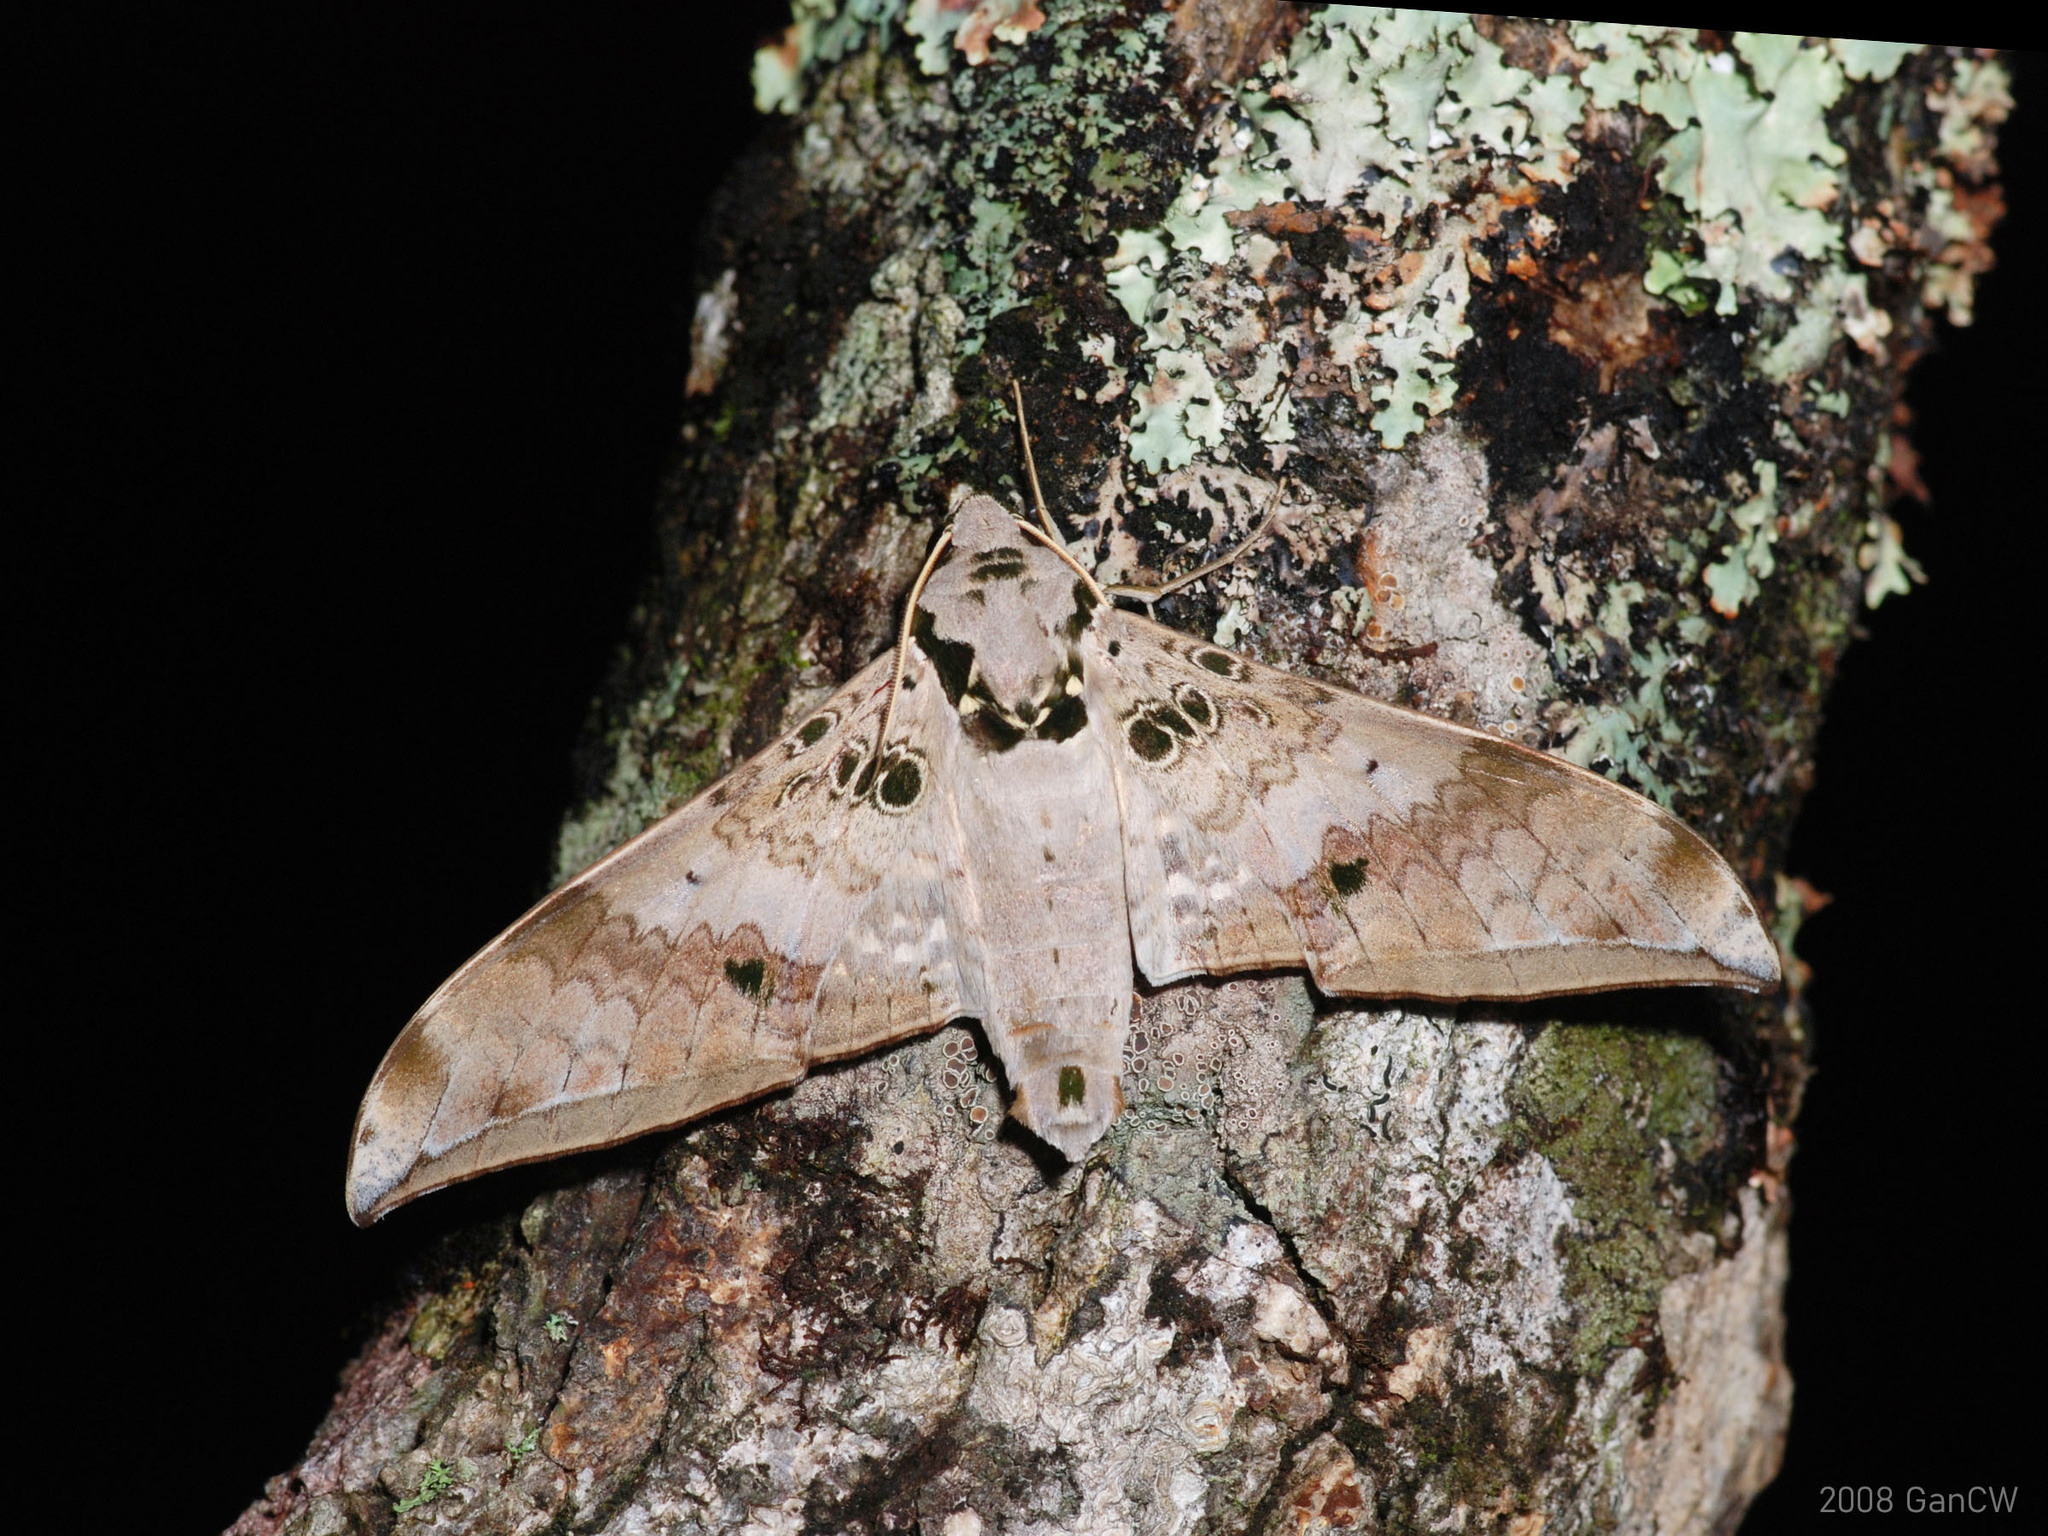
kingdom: Animalia
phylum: Arthropoda
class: Insecta
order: Lepidoptera
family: Sphingidae
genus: Ambulyx
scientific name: Ambulyx canescens
